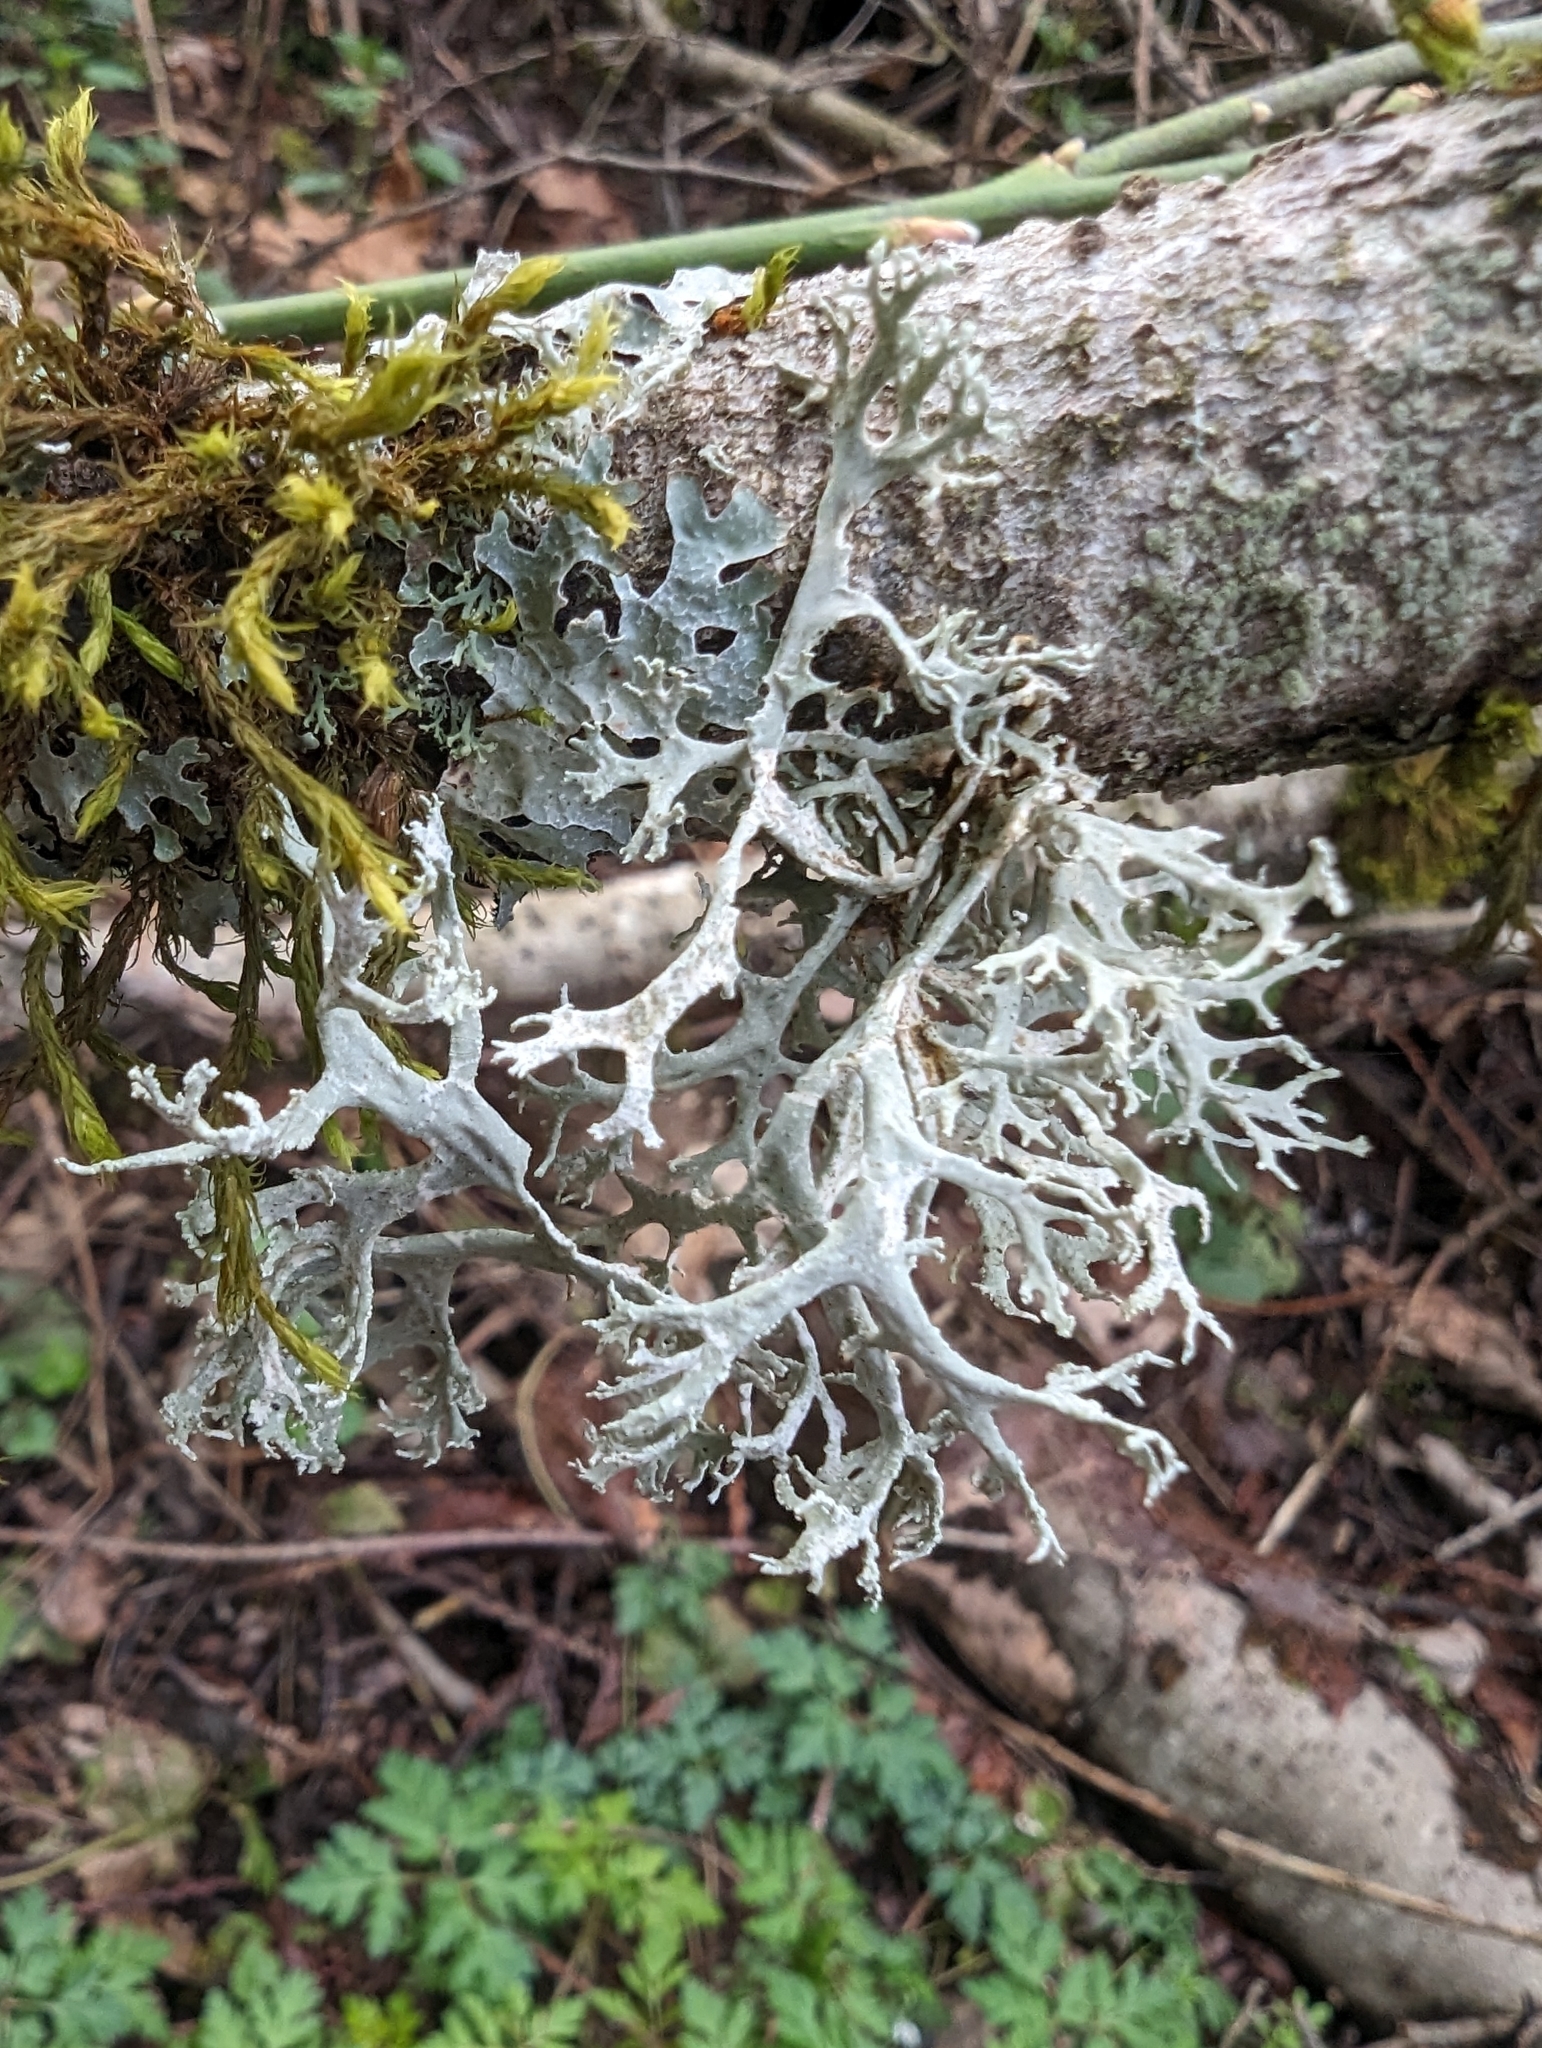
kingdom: Fungi
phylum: Ascomycota
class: Lecanoromycetes
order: Lecanorales
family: Parmeliaceae
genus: Evernia
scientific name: Evernia prunastri
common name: Oak moss
